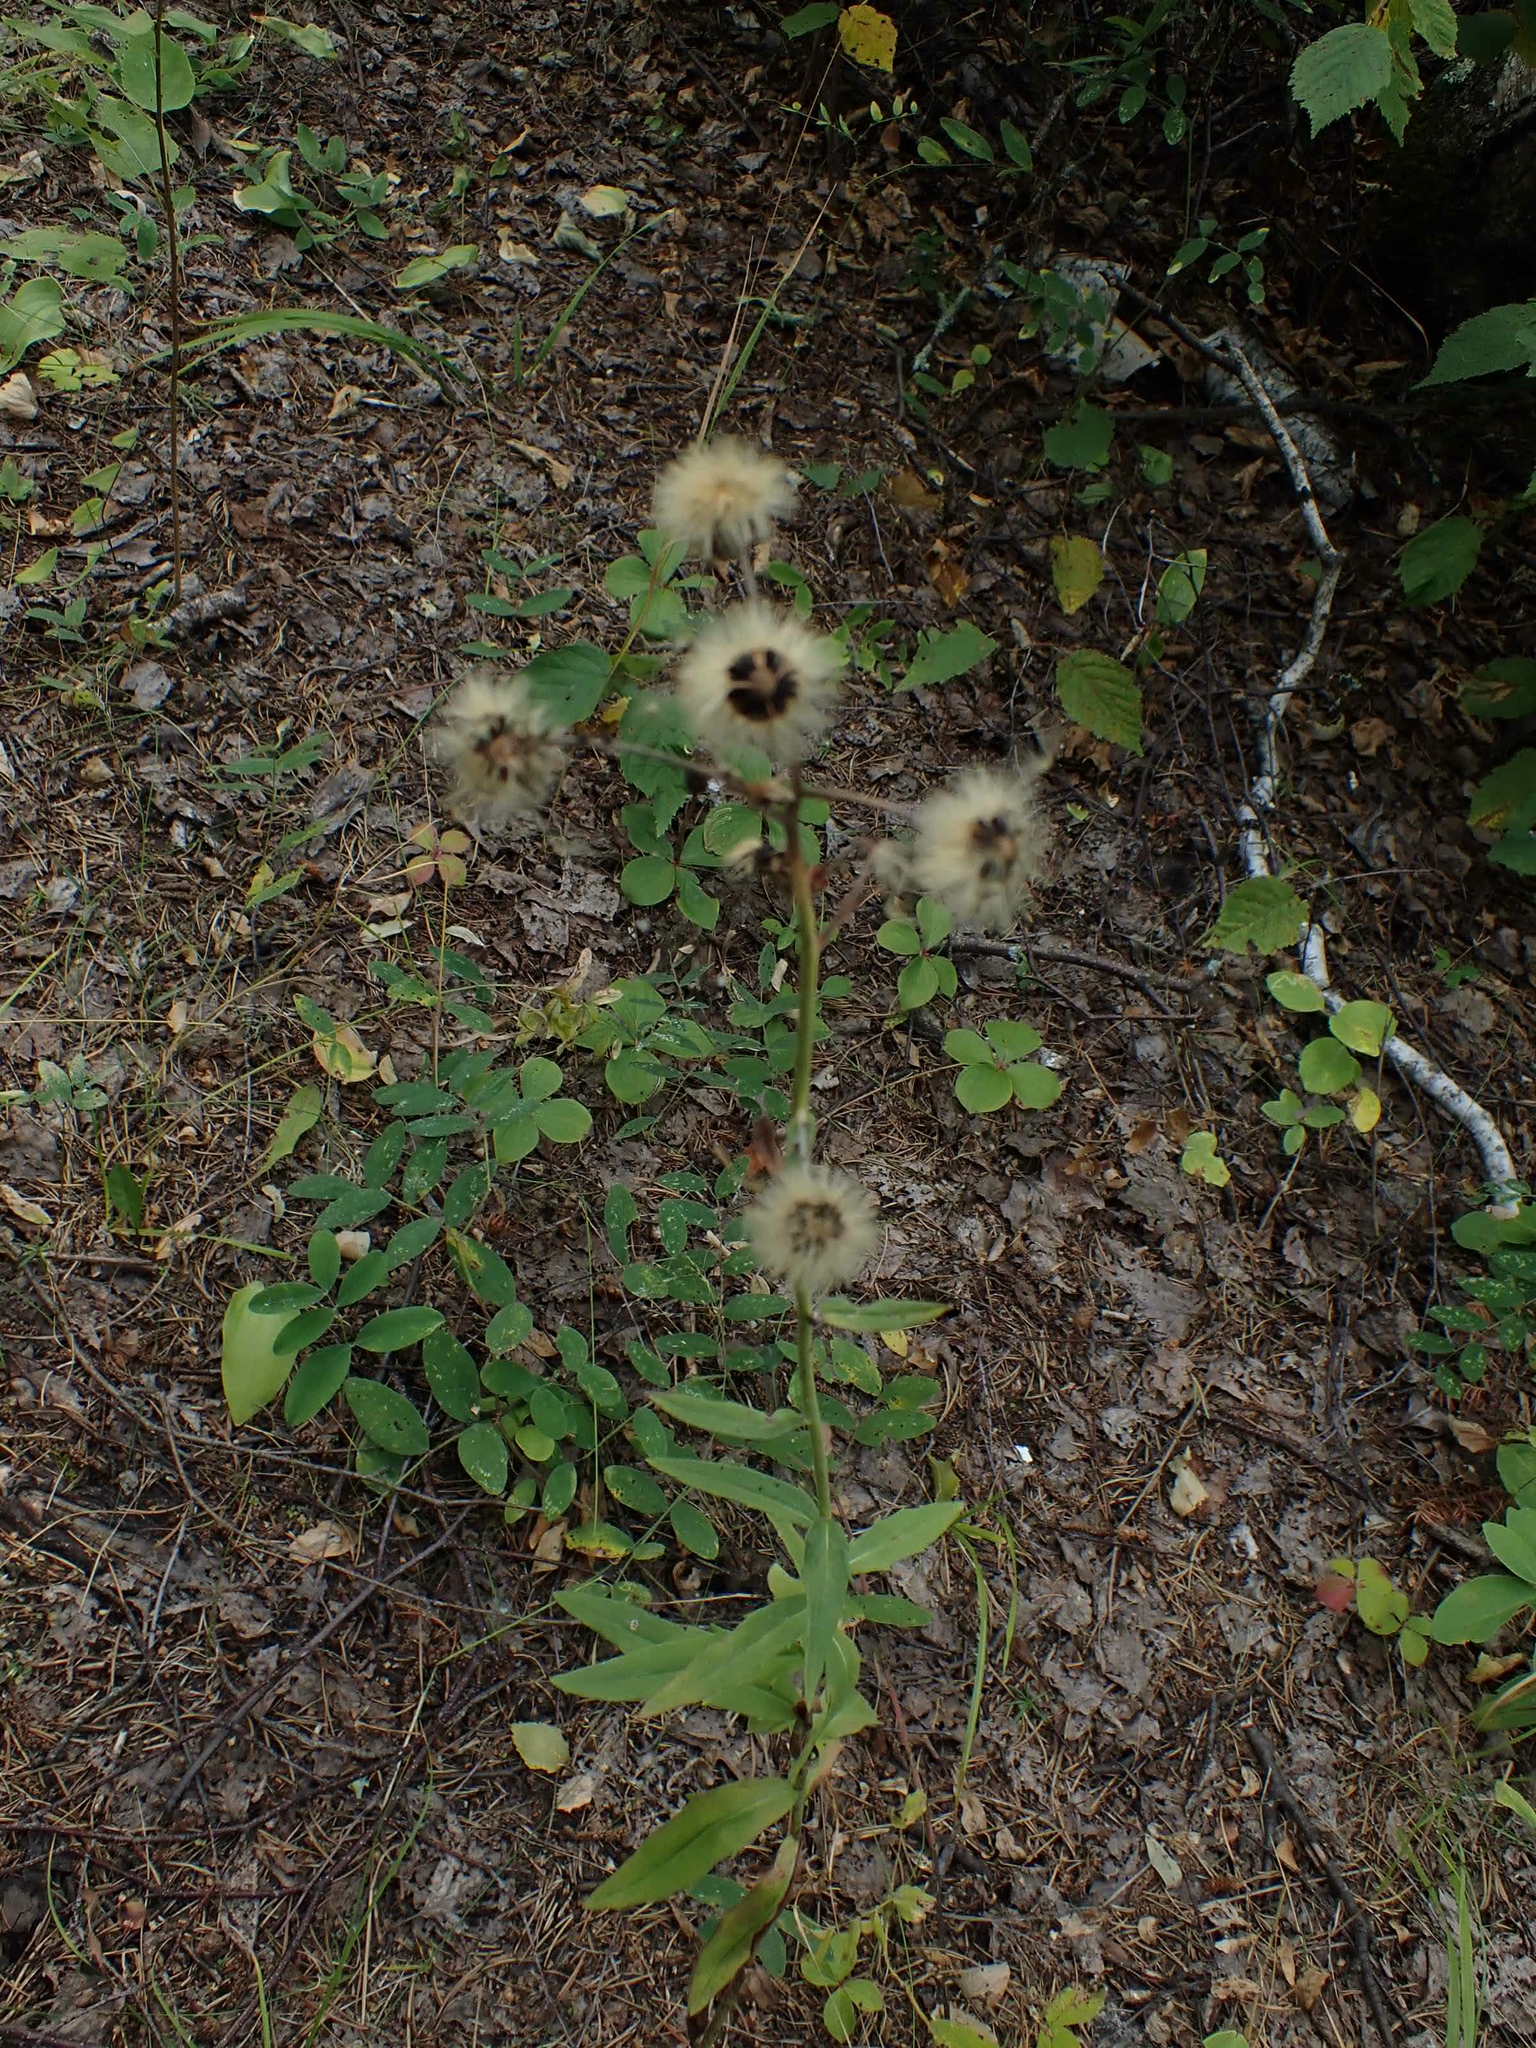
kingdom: Plantae
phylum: Tracheophyta
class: Magnoliopsida
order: Asterales
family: Asteraceae
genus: Hieracium
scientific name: Hieracium umbellatum
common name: Northern hawkweed
